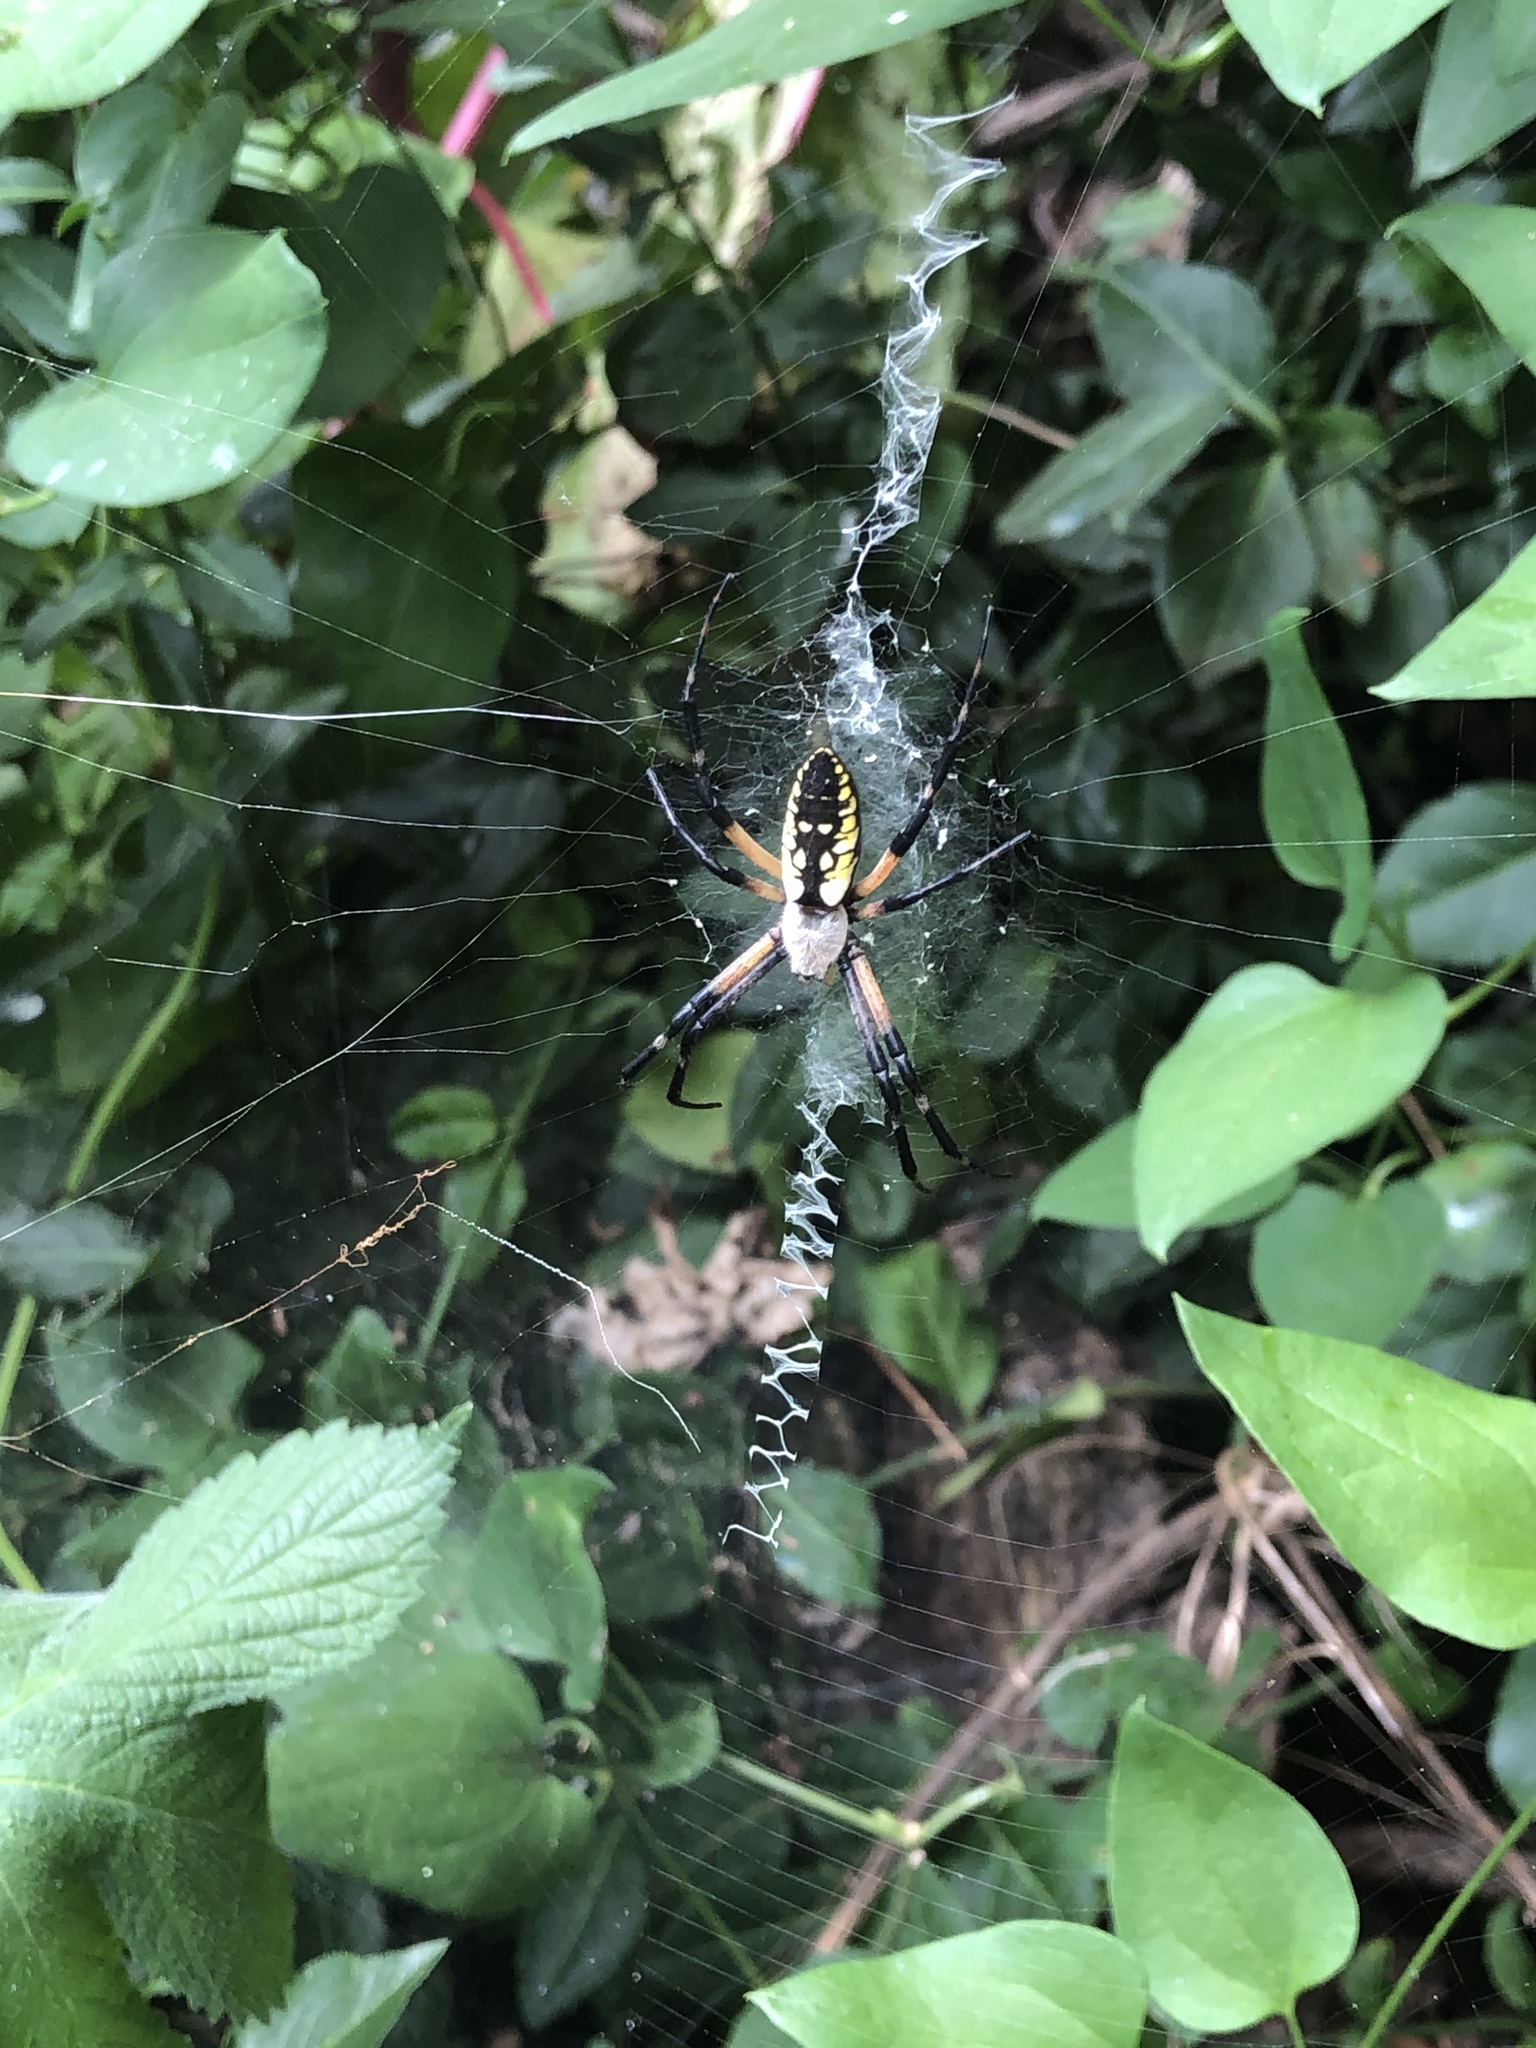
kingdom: Animalia
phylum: Arthropoda
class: Arachnida
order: Araneae
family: Araneidae
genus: Argiope
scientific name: Argiope aurantia
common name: Orb weavers
